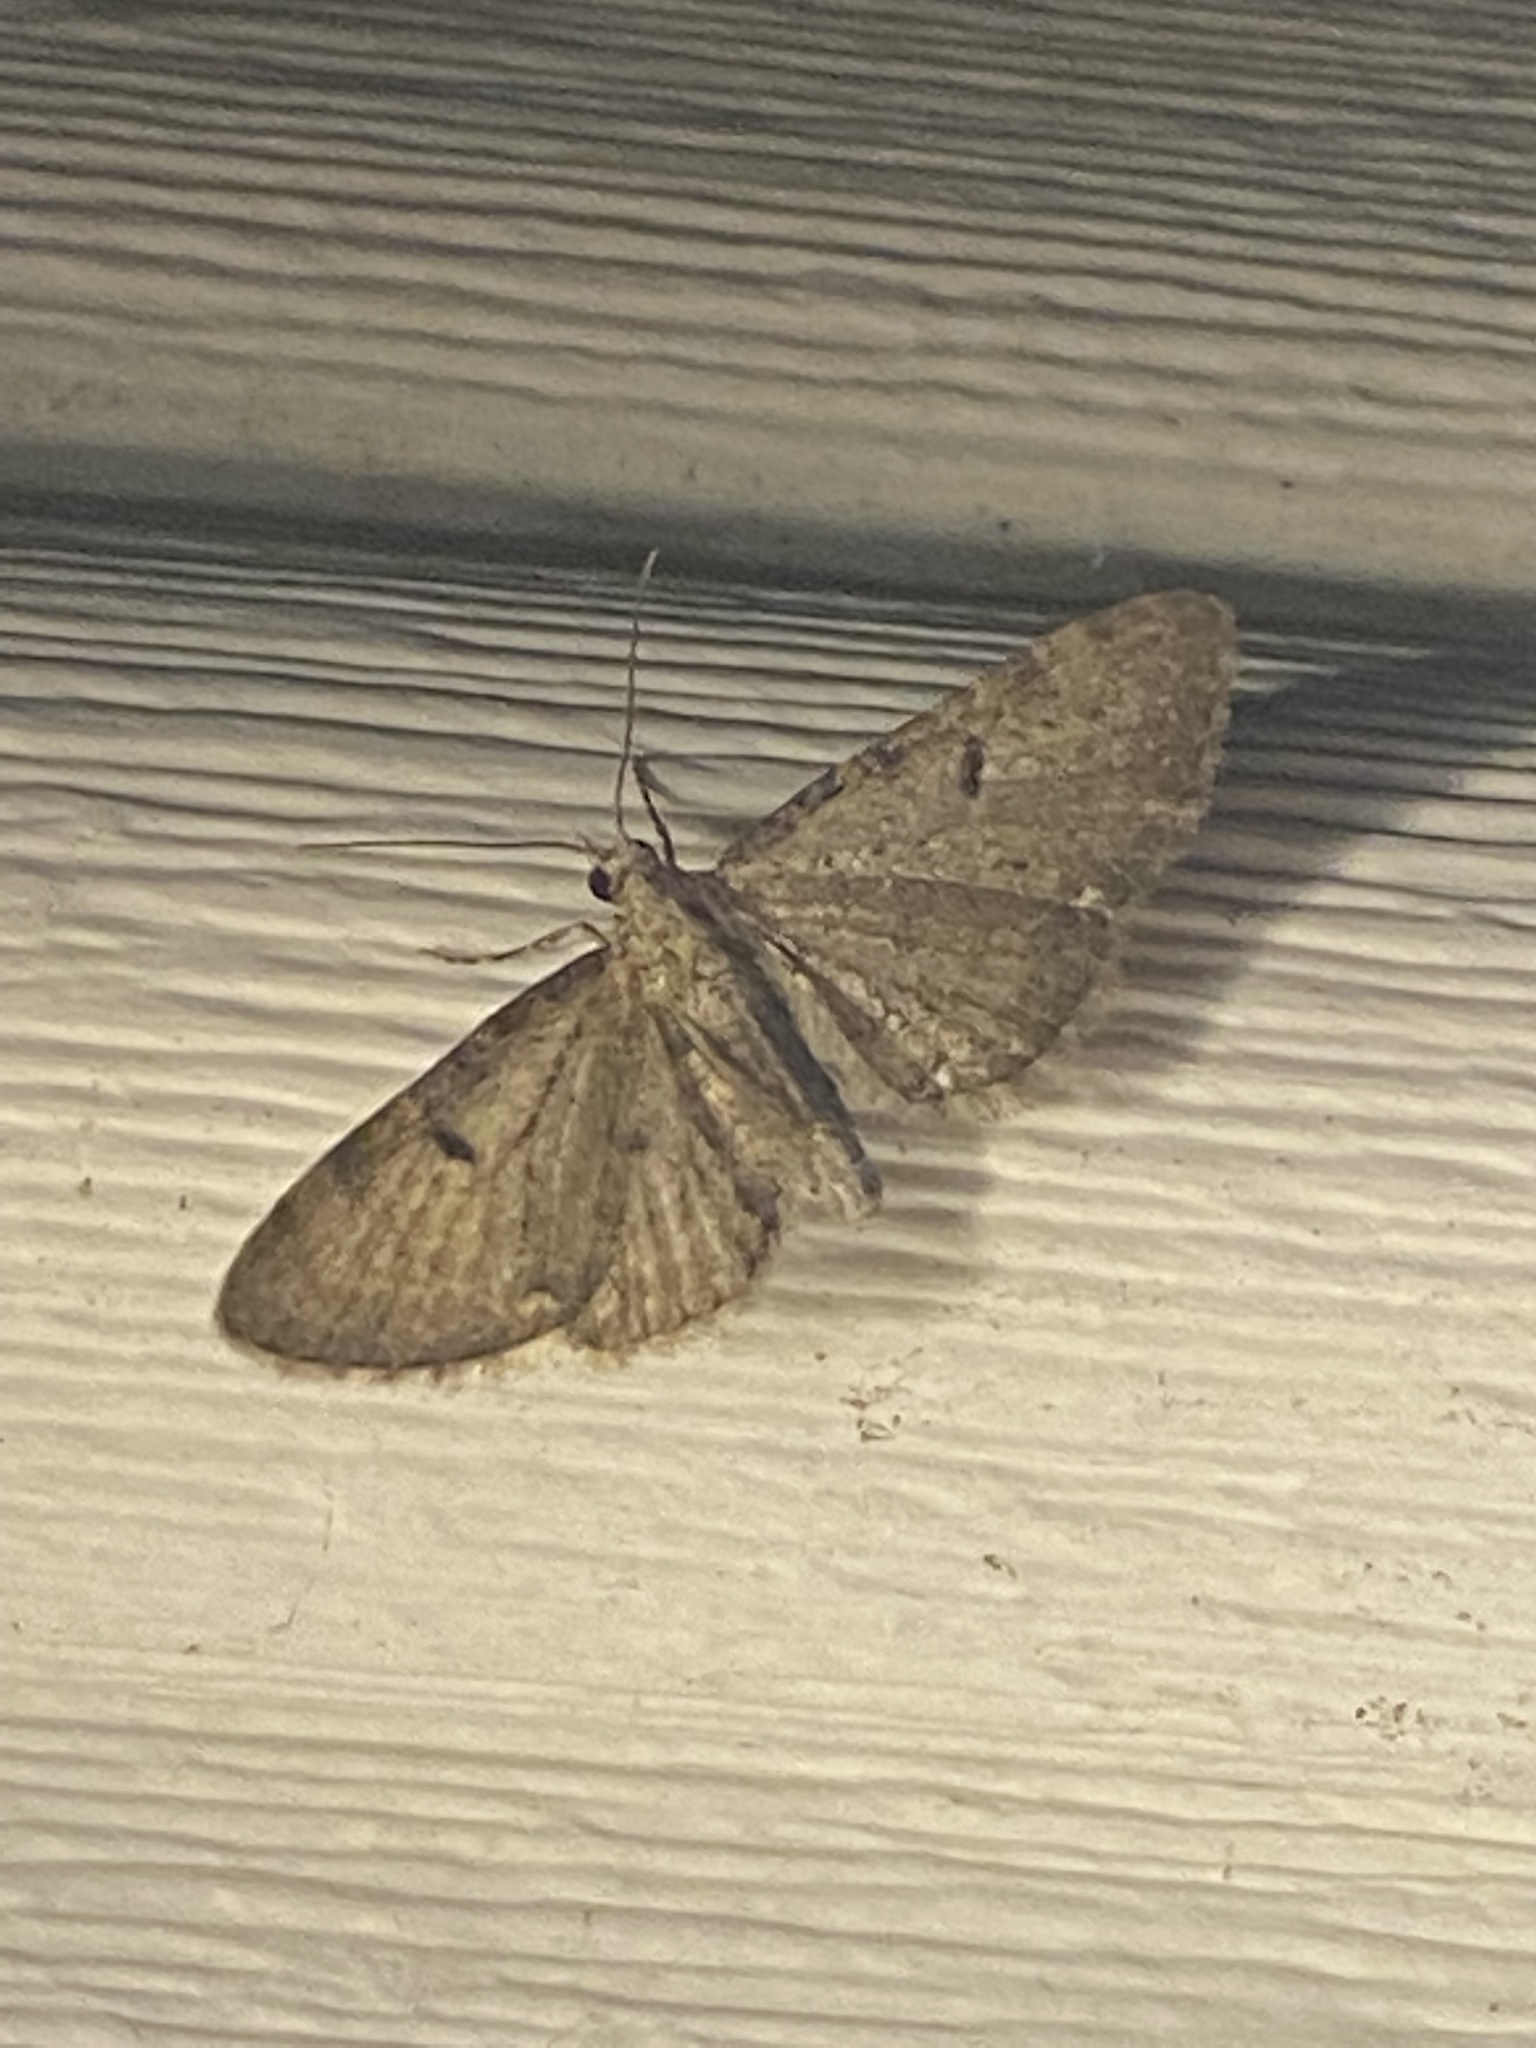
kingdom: Animalia
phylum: Arthropoda
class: Insecta
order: Lepidoptera
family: Geometridae
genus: Eupithecia
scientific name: Eupithecia miserulata
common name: Common eupithecia
